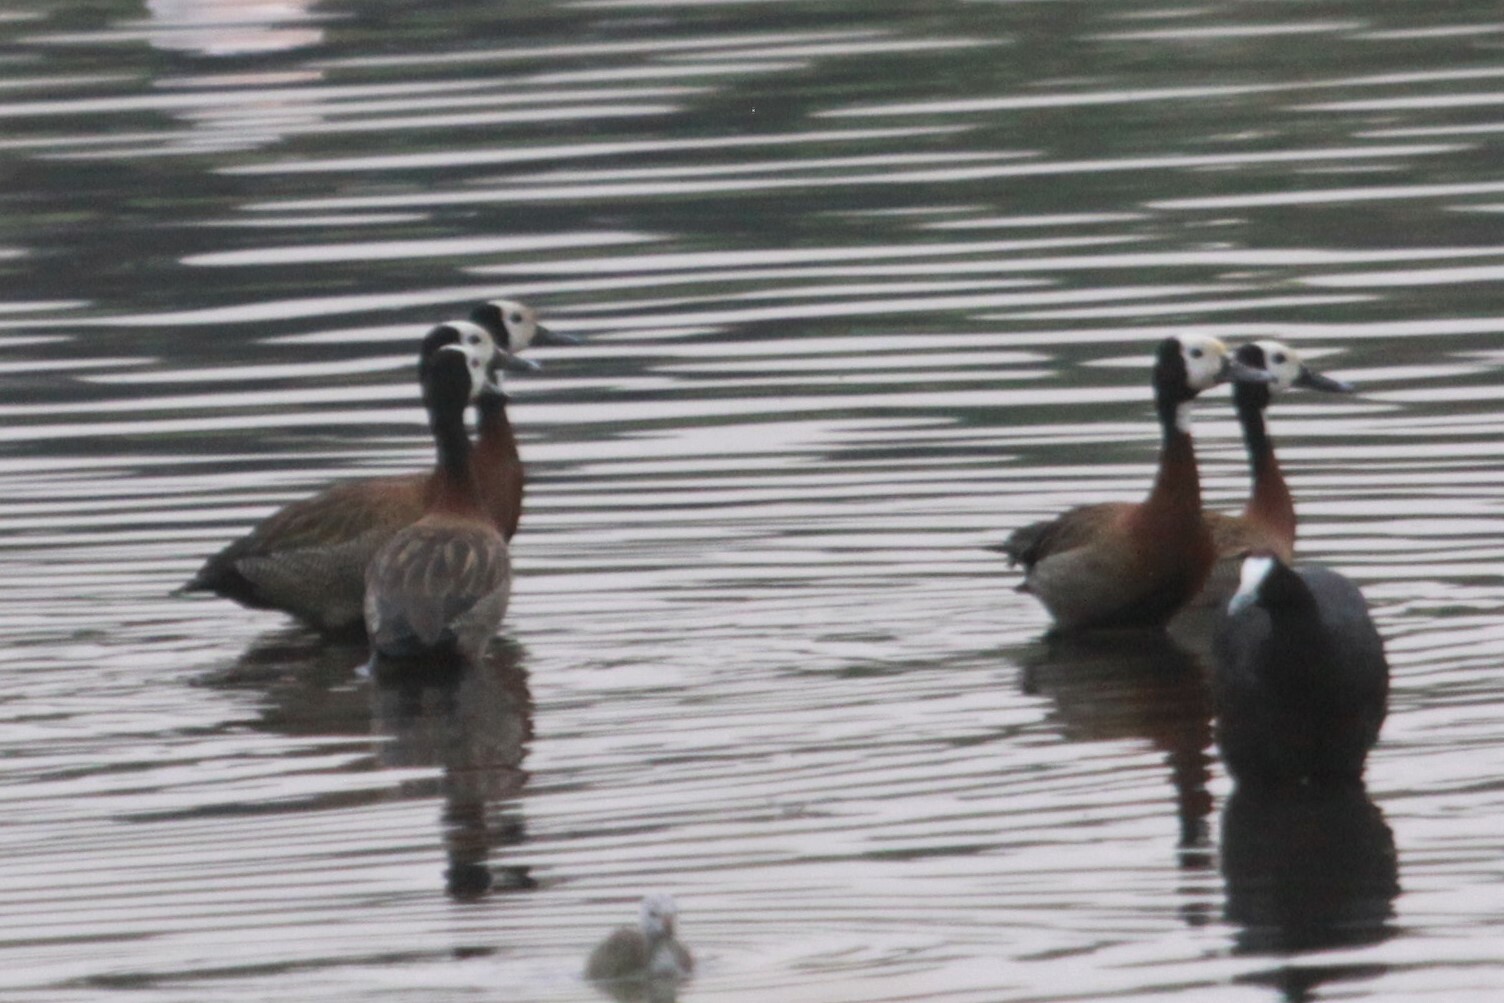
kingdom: Animalia
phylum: Chordata
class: Aves
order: Anseriformes
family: Anatidae
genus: Dendrocygna
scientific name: Dendrocygna viduata
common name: White-faced whistling duck
